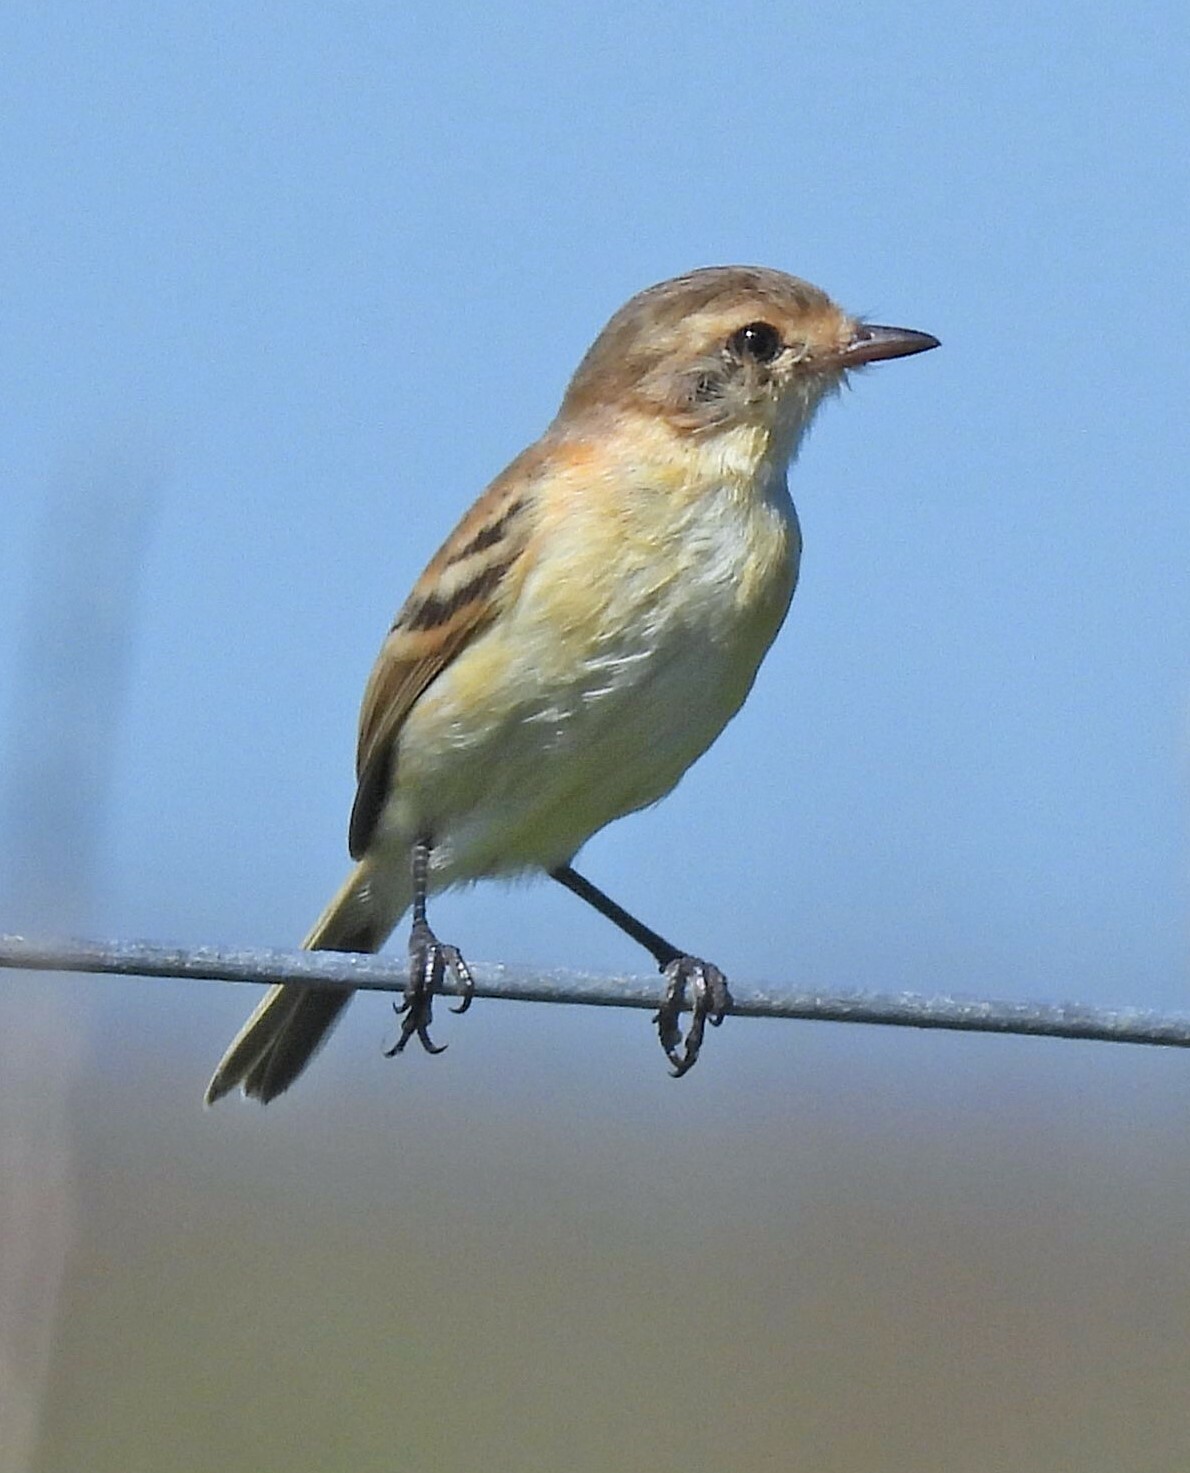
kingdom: Animalia
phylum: Chordata
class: Aves
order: Passeriformes
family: Tyrannidae
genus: Polystictus
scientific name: Polystictus pectoralis
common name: Bearded tachuri
